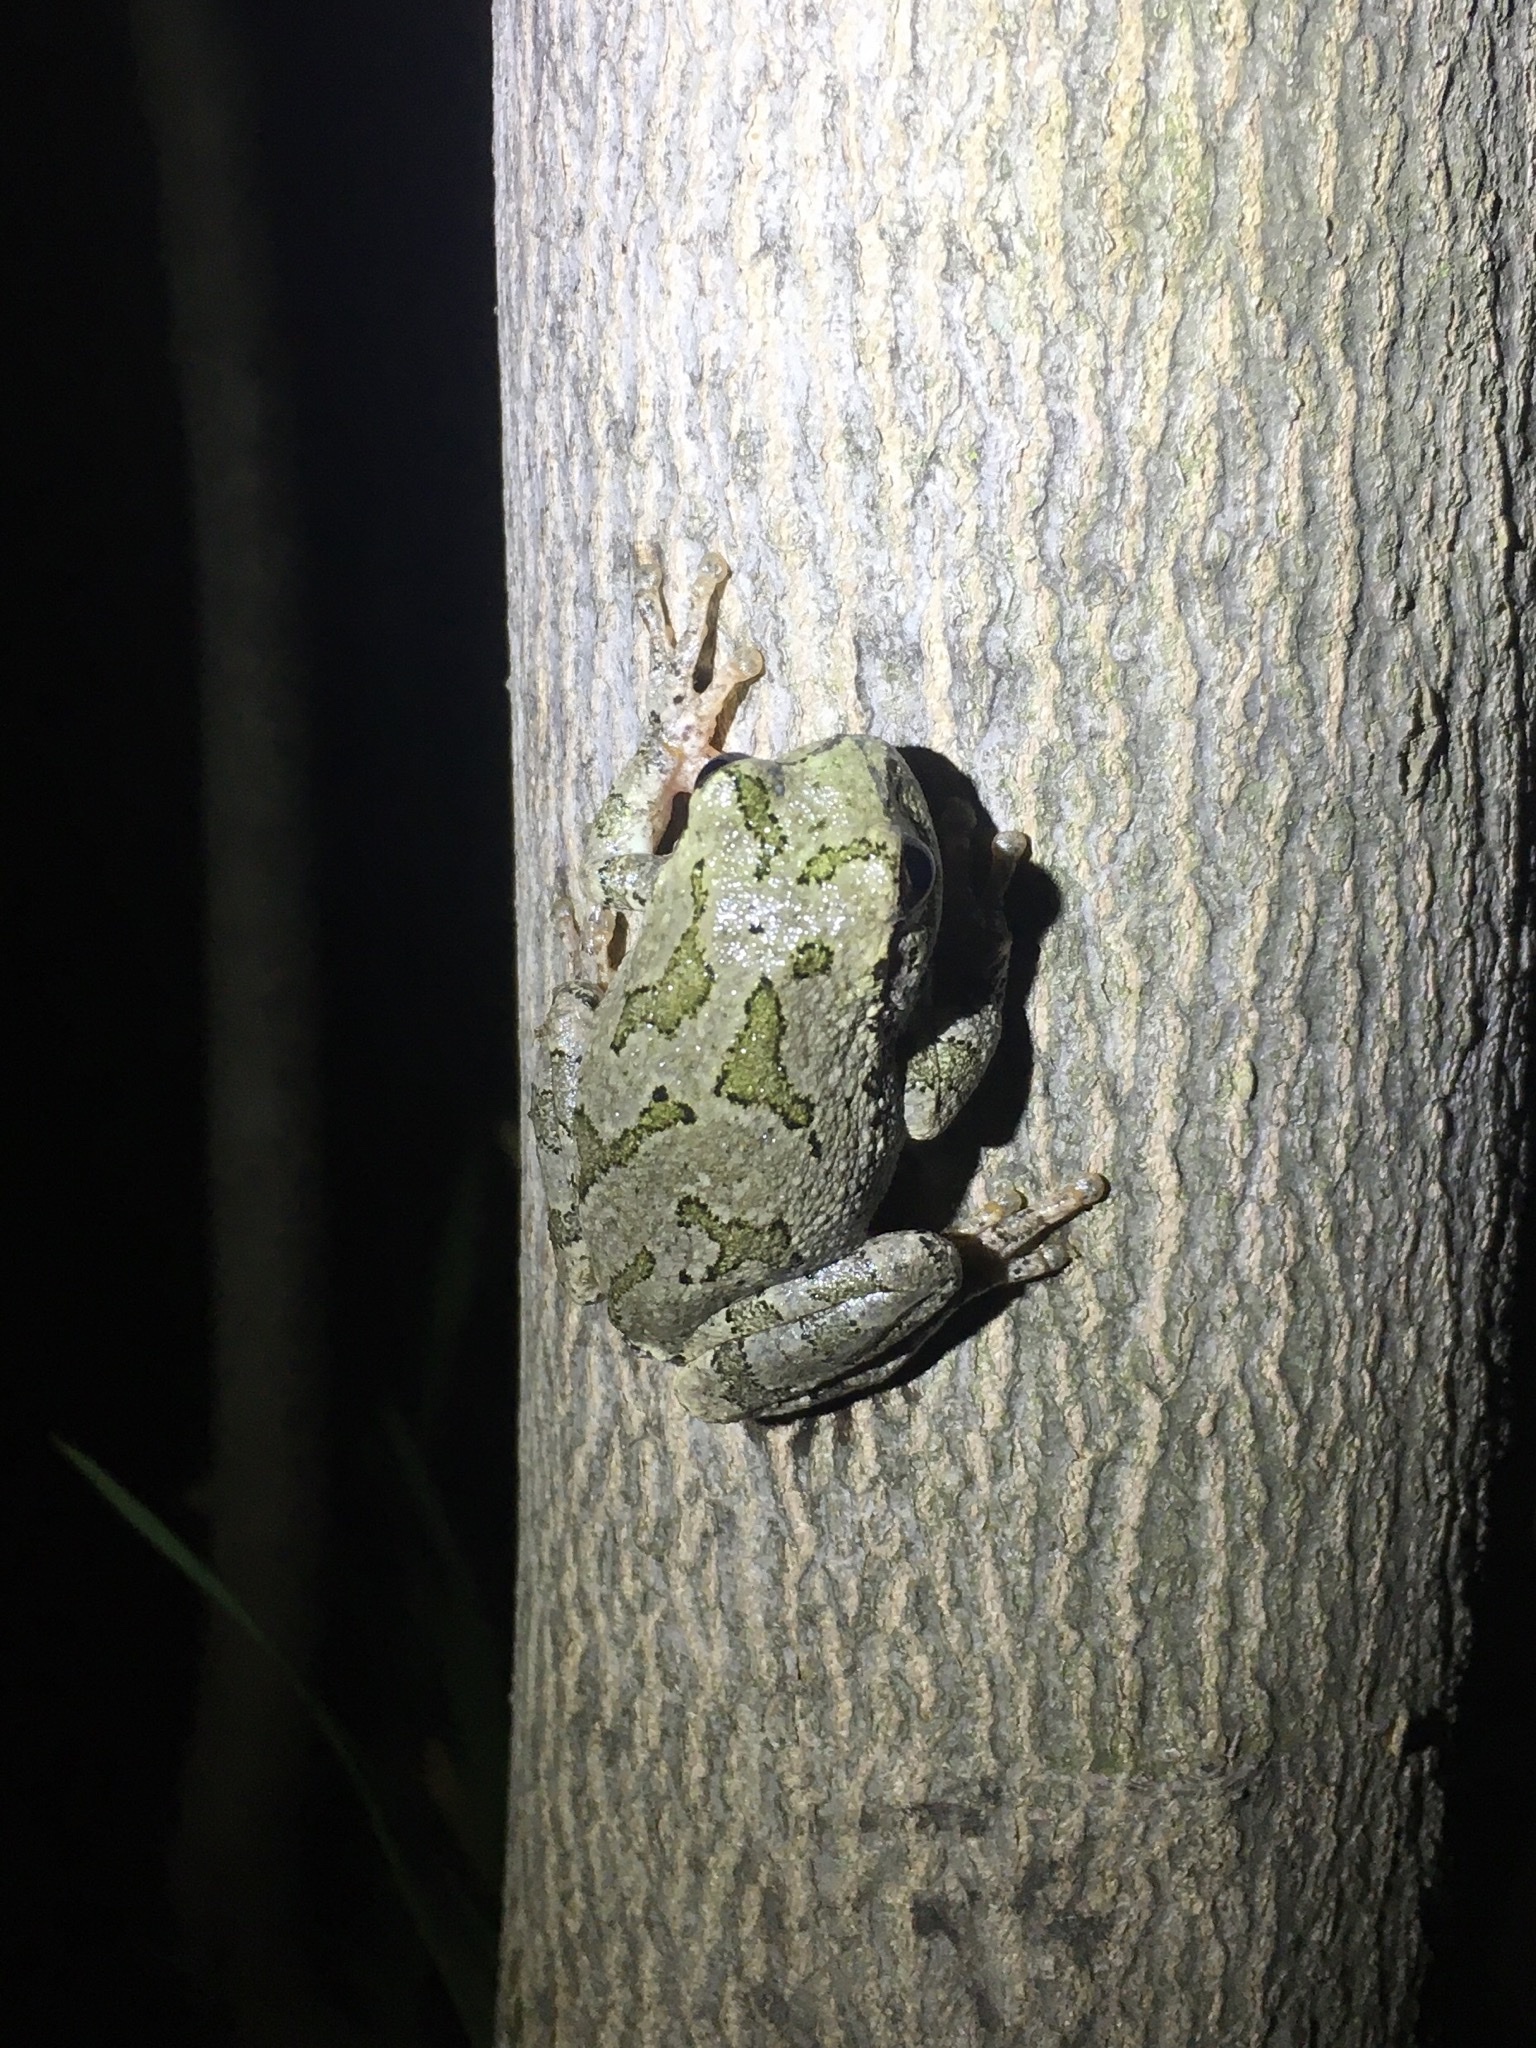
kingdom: Animalia
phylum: Chordata
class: Amphibia
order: Anura
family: Hylidae
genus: Dryophytes
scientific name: Dryophytes chrysoscelis
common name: Cope's gray treefrog
